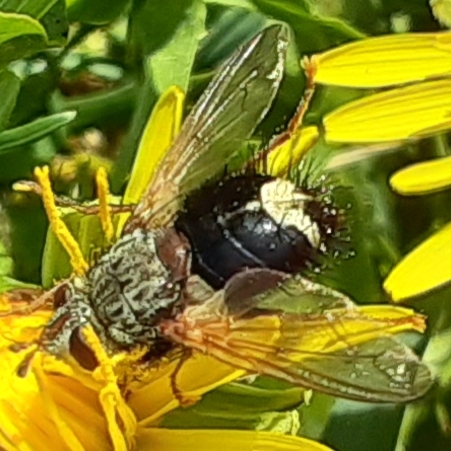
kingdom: Animalia
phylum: Arthropoda
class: Insecta
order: Diptera
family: Tachinidae
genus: Epalpus
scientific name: Epalpus signifer
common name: Early tachinid fly
